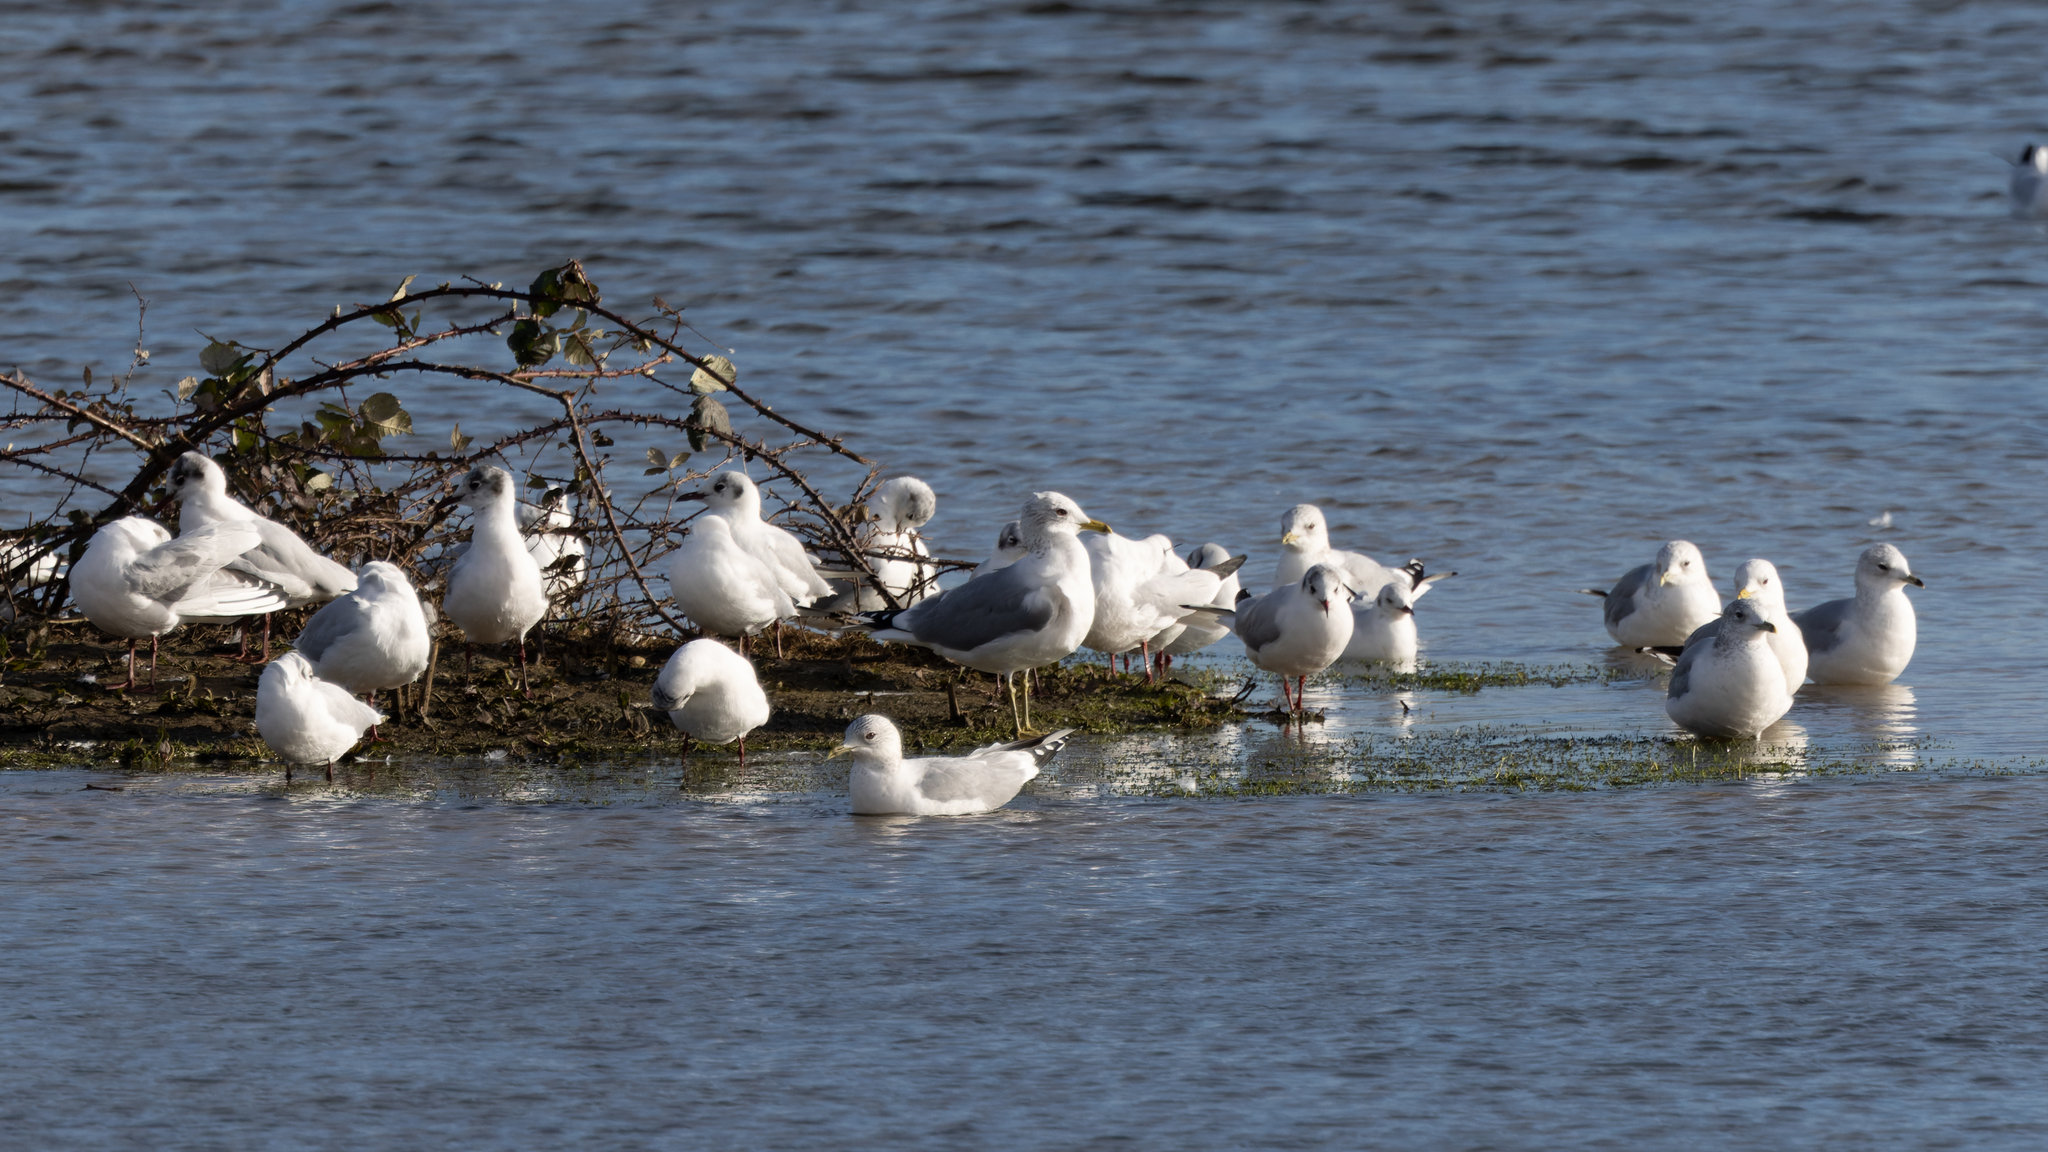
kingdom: Animalia
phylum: Chordata
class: Aves
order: Charadriiformes
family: Laridae
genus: Chroicocephalus
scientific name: Chroicocephalus ridibundus
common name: Black-headed gull
